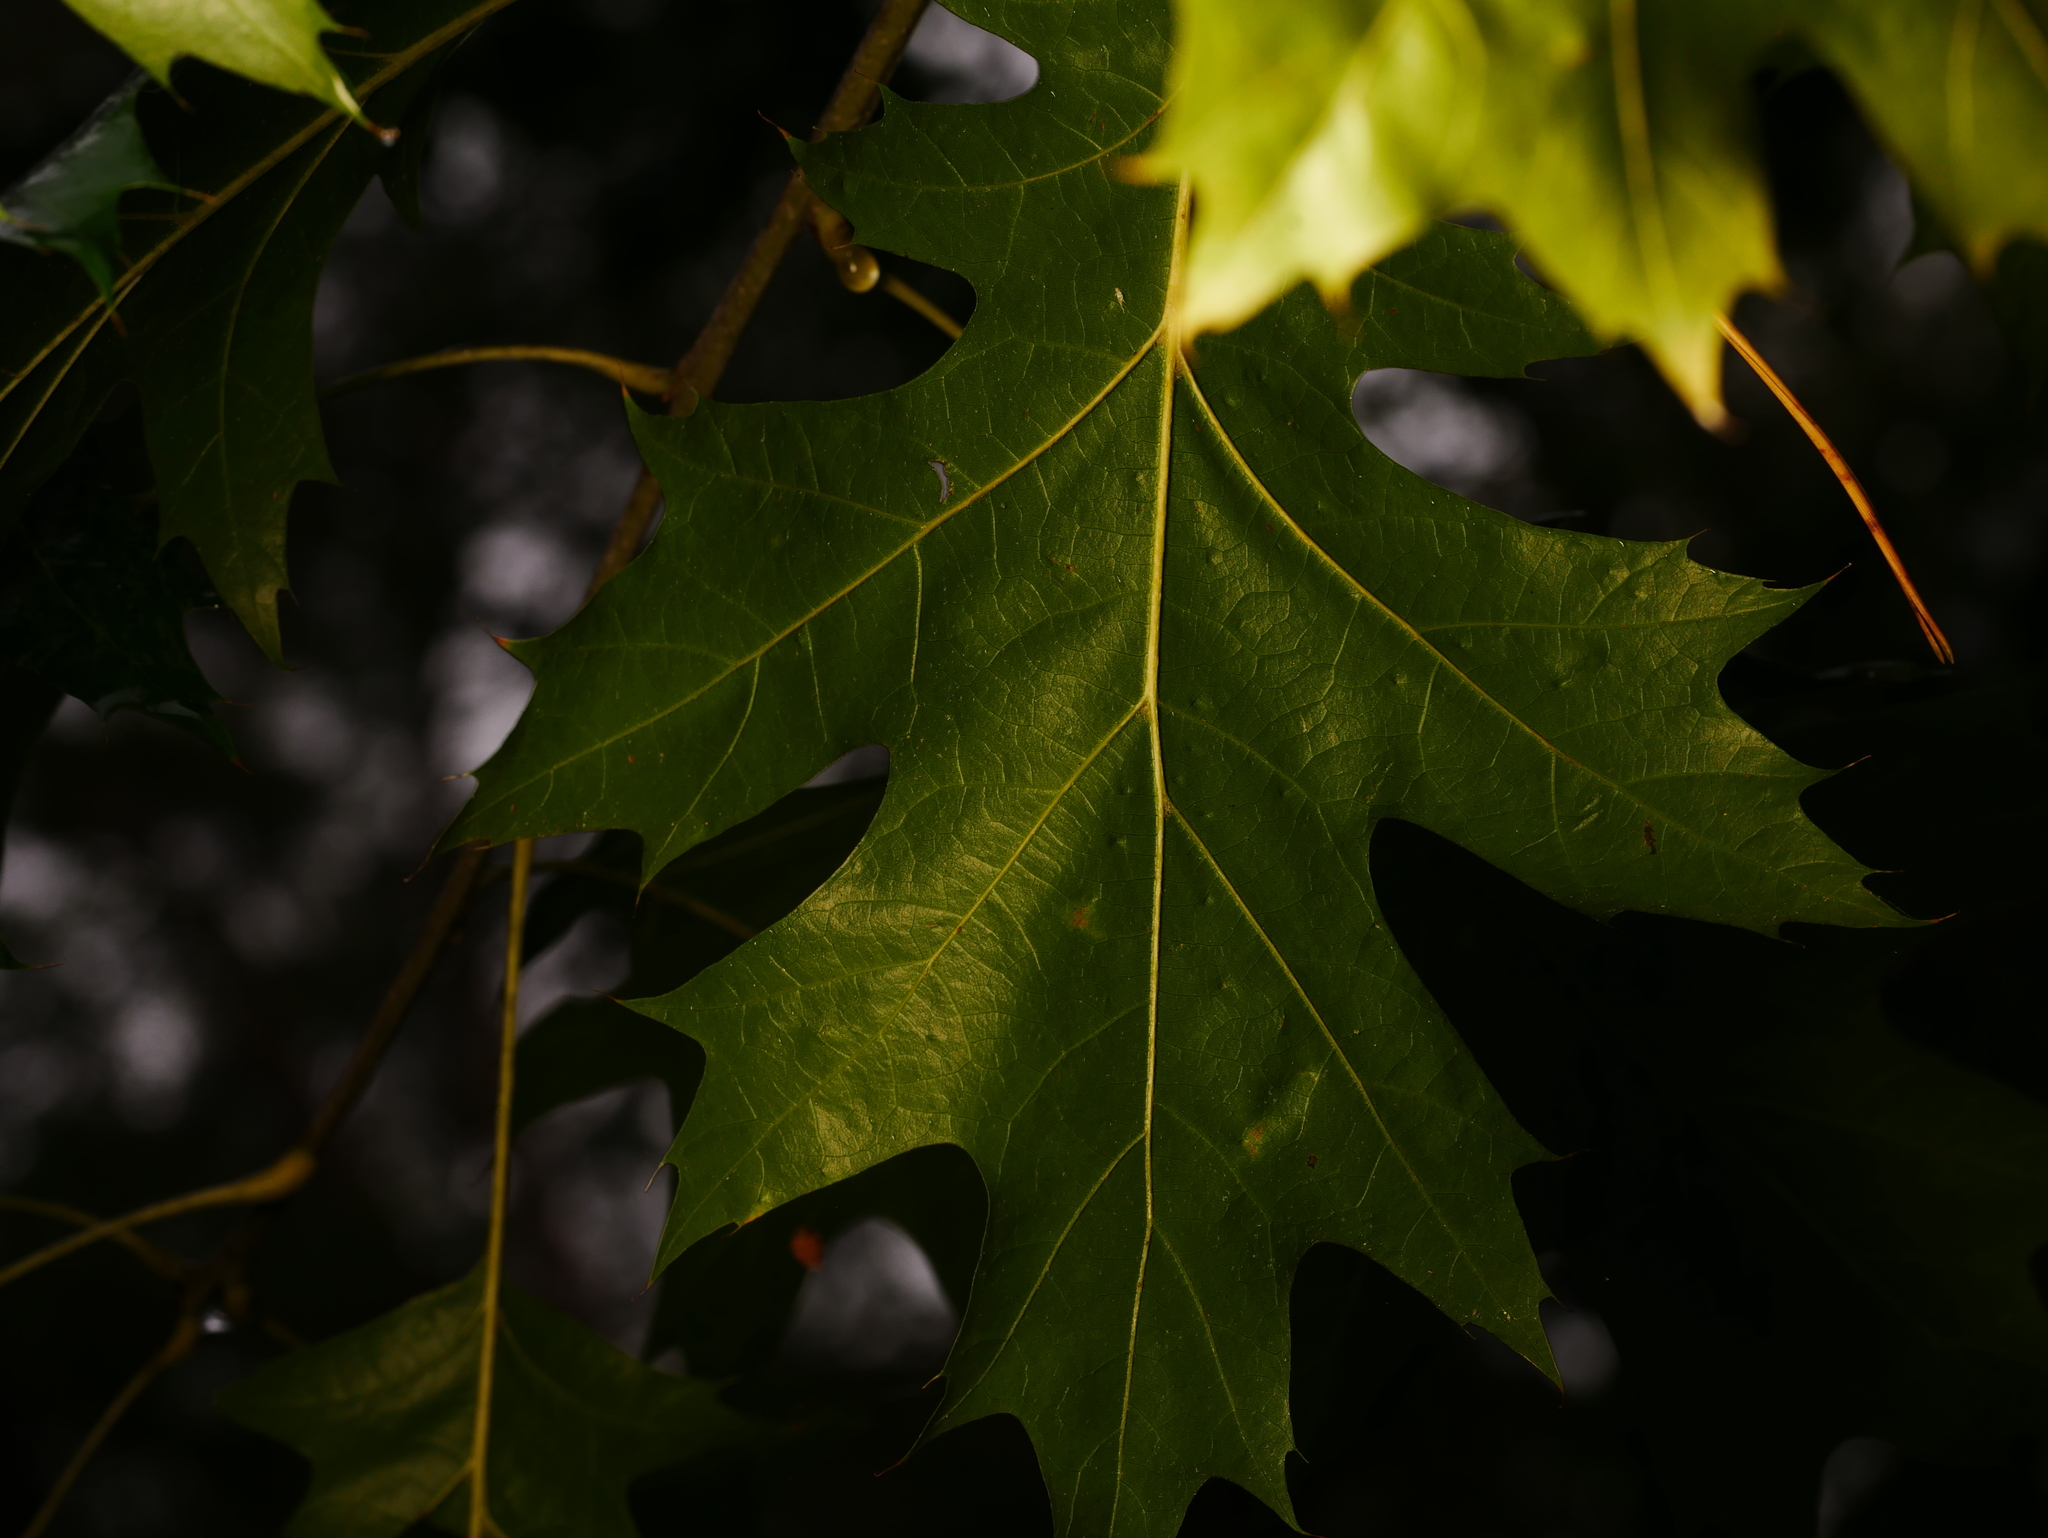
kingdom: Plantae
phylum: Tracheophyta
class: Magnoliopsida
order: Fagales
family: Fagaceae
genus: Quercus
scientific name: Quercus rubra
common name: Red oak
